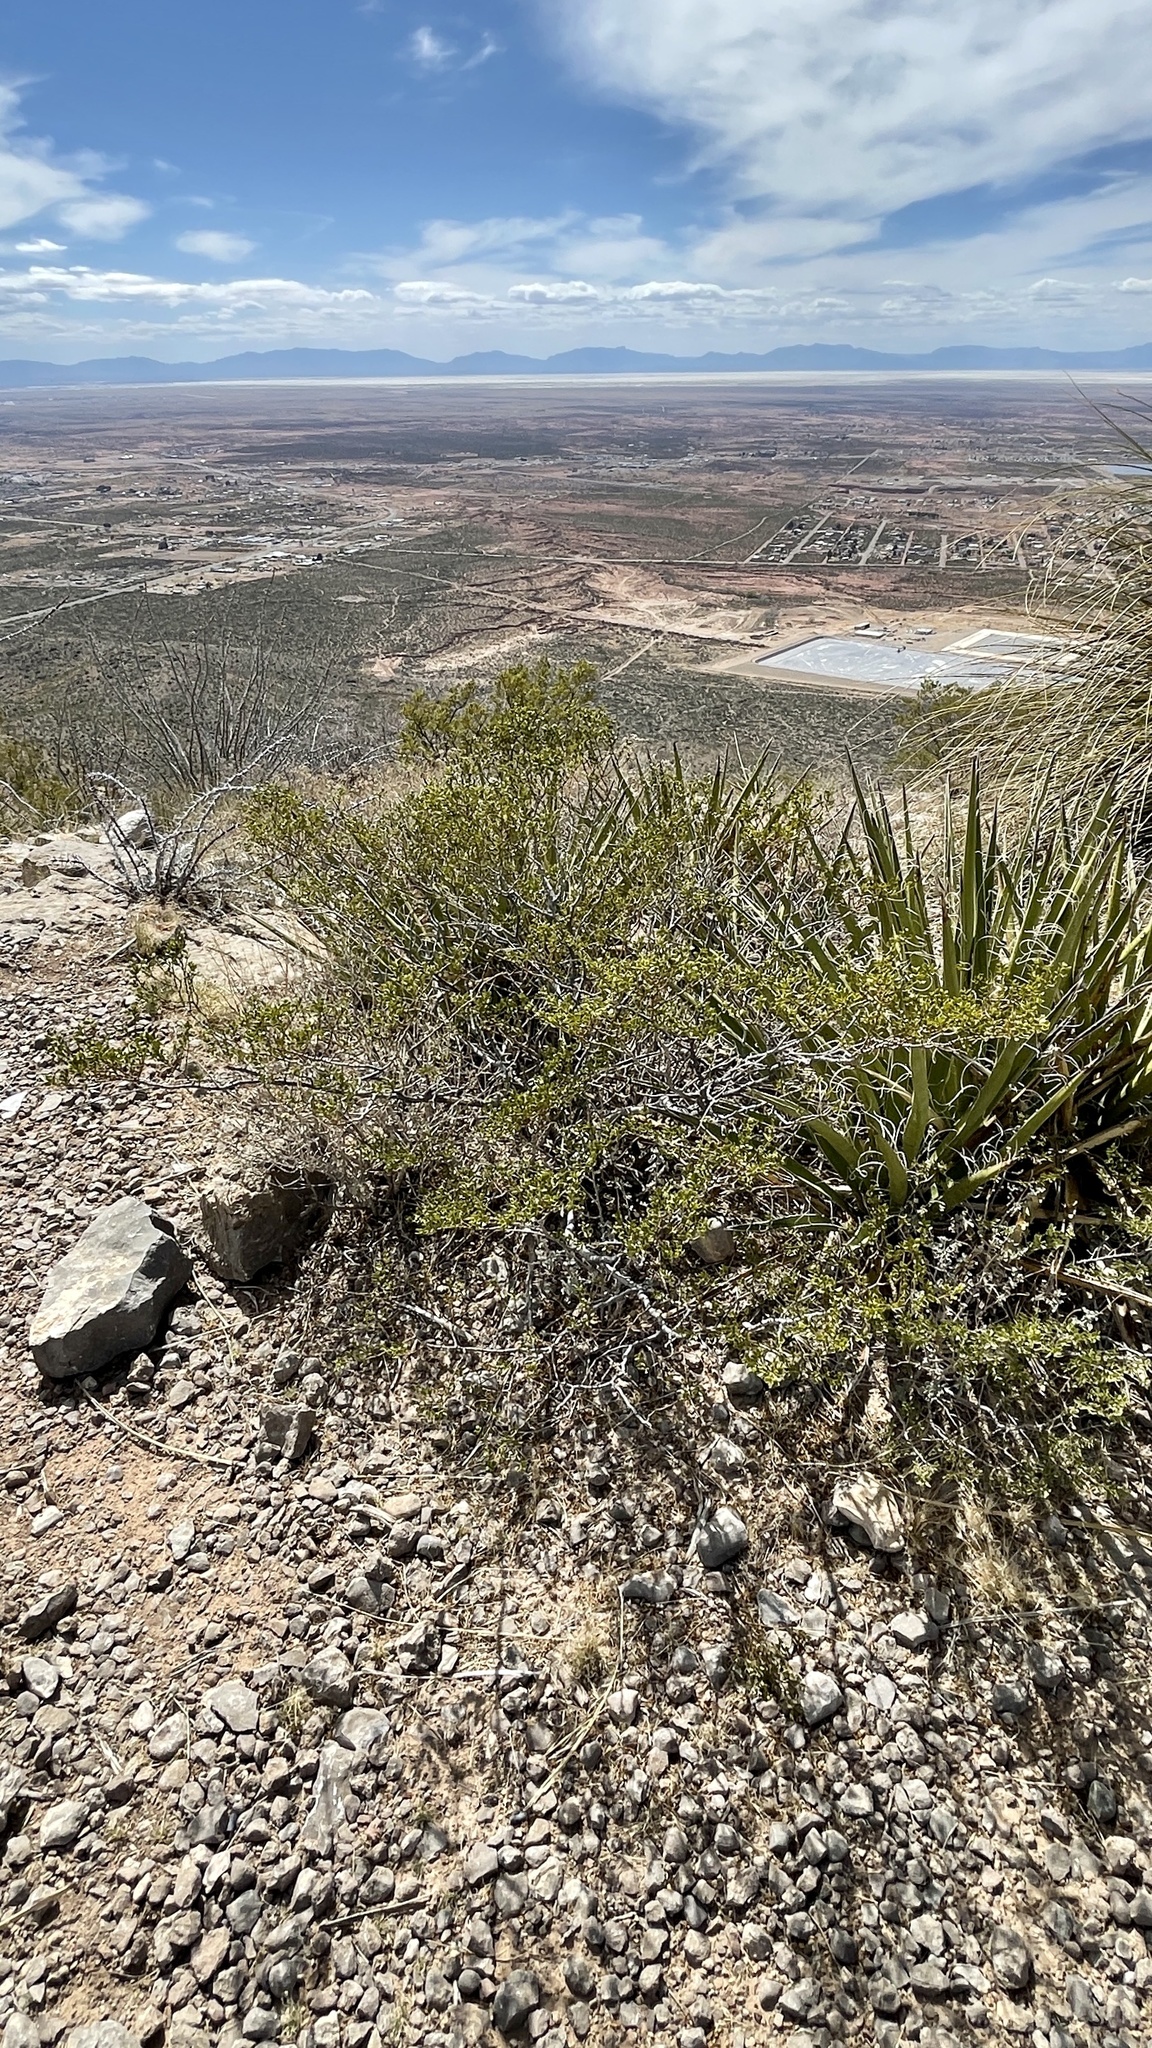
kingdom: Plantae
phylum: Tracheophyta
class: Magnoliopsida
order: Zygophyllales
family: Zygophyllaceae
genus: Larrea
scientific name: Larrea tridentata
